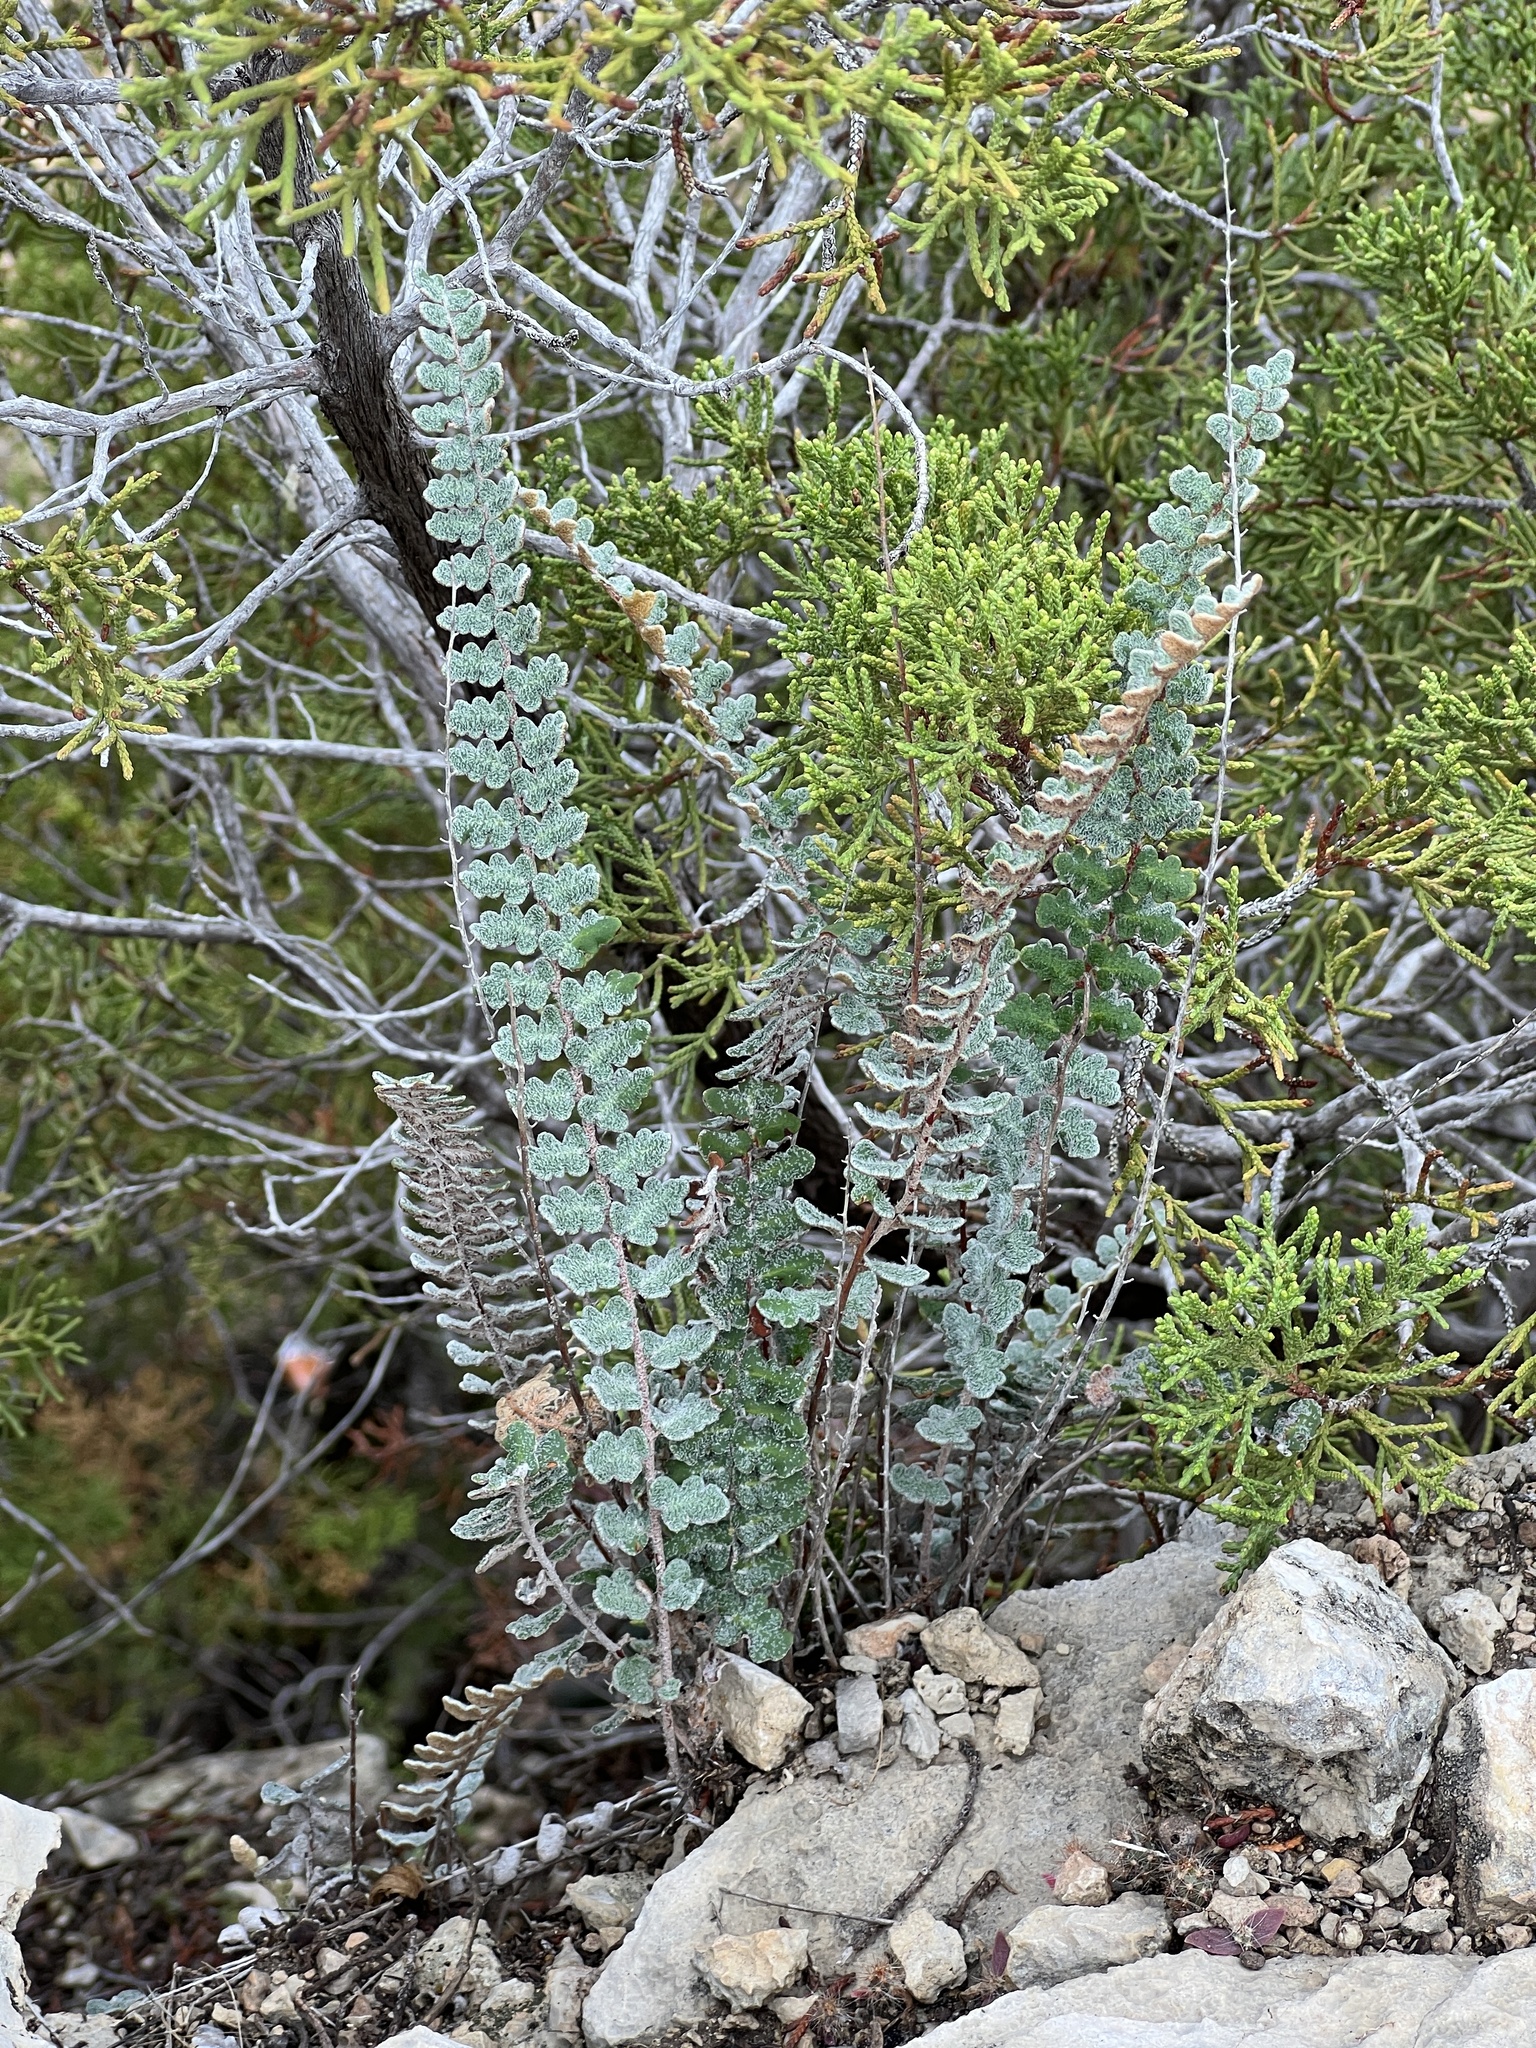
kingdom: Plantae
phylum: Tracheophyta
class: Polypodiopsida
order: Polypodiales
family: Pteridaceae
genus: Astrolepis
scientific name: Astrolepis integerrima
